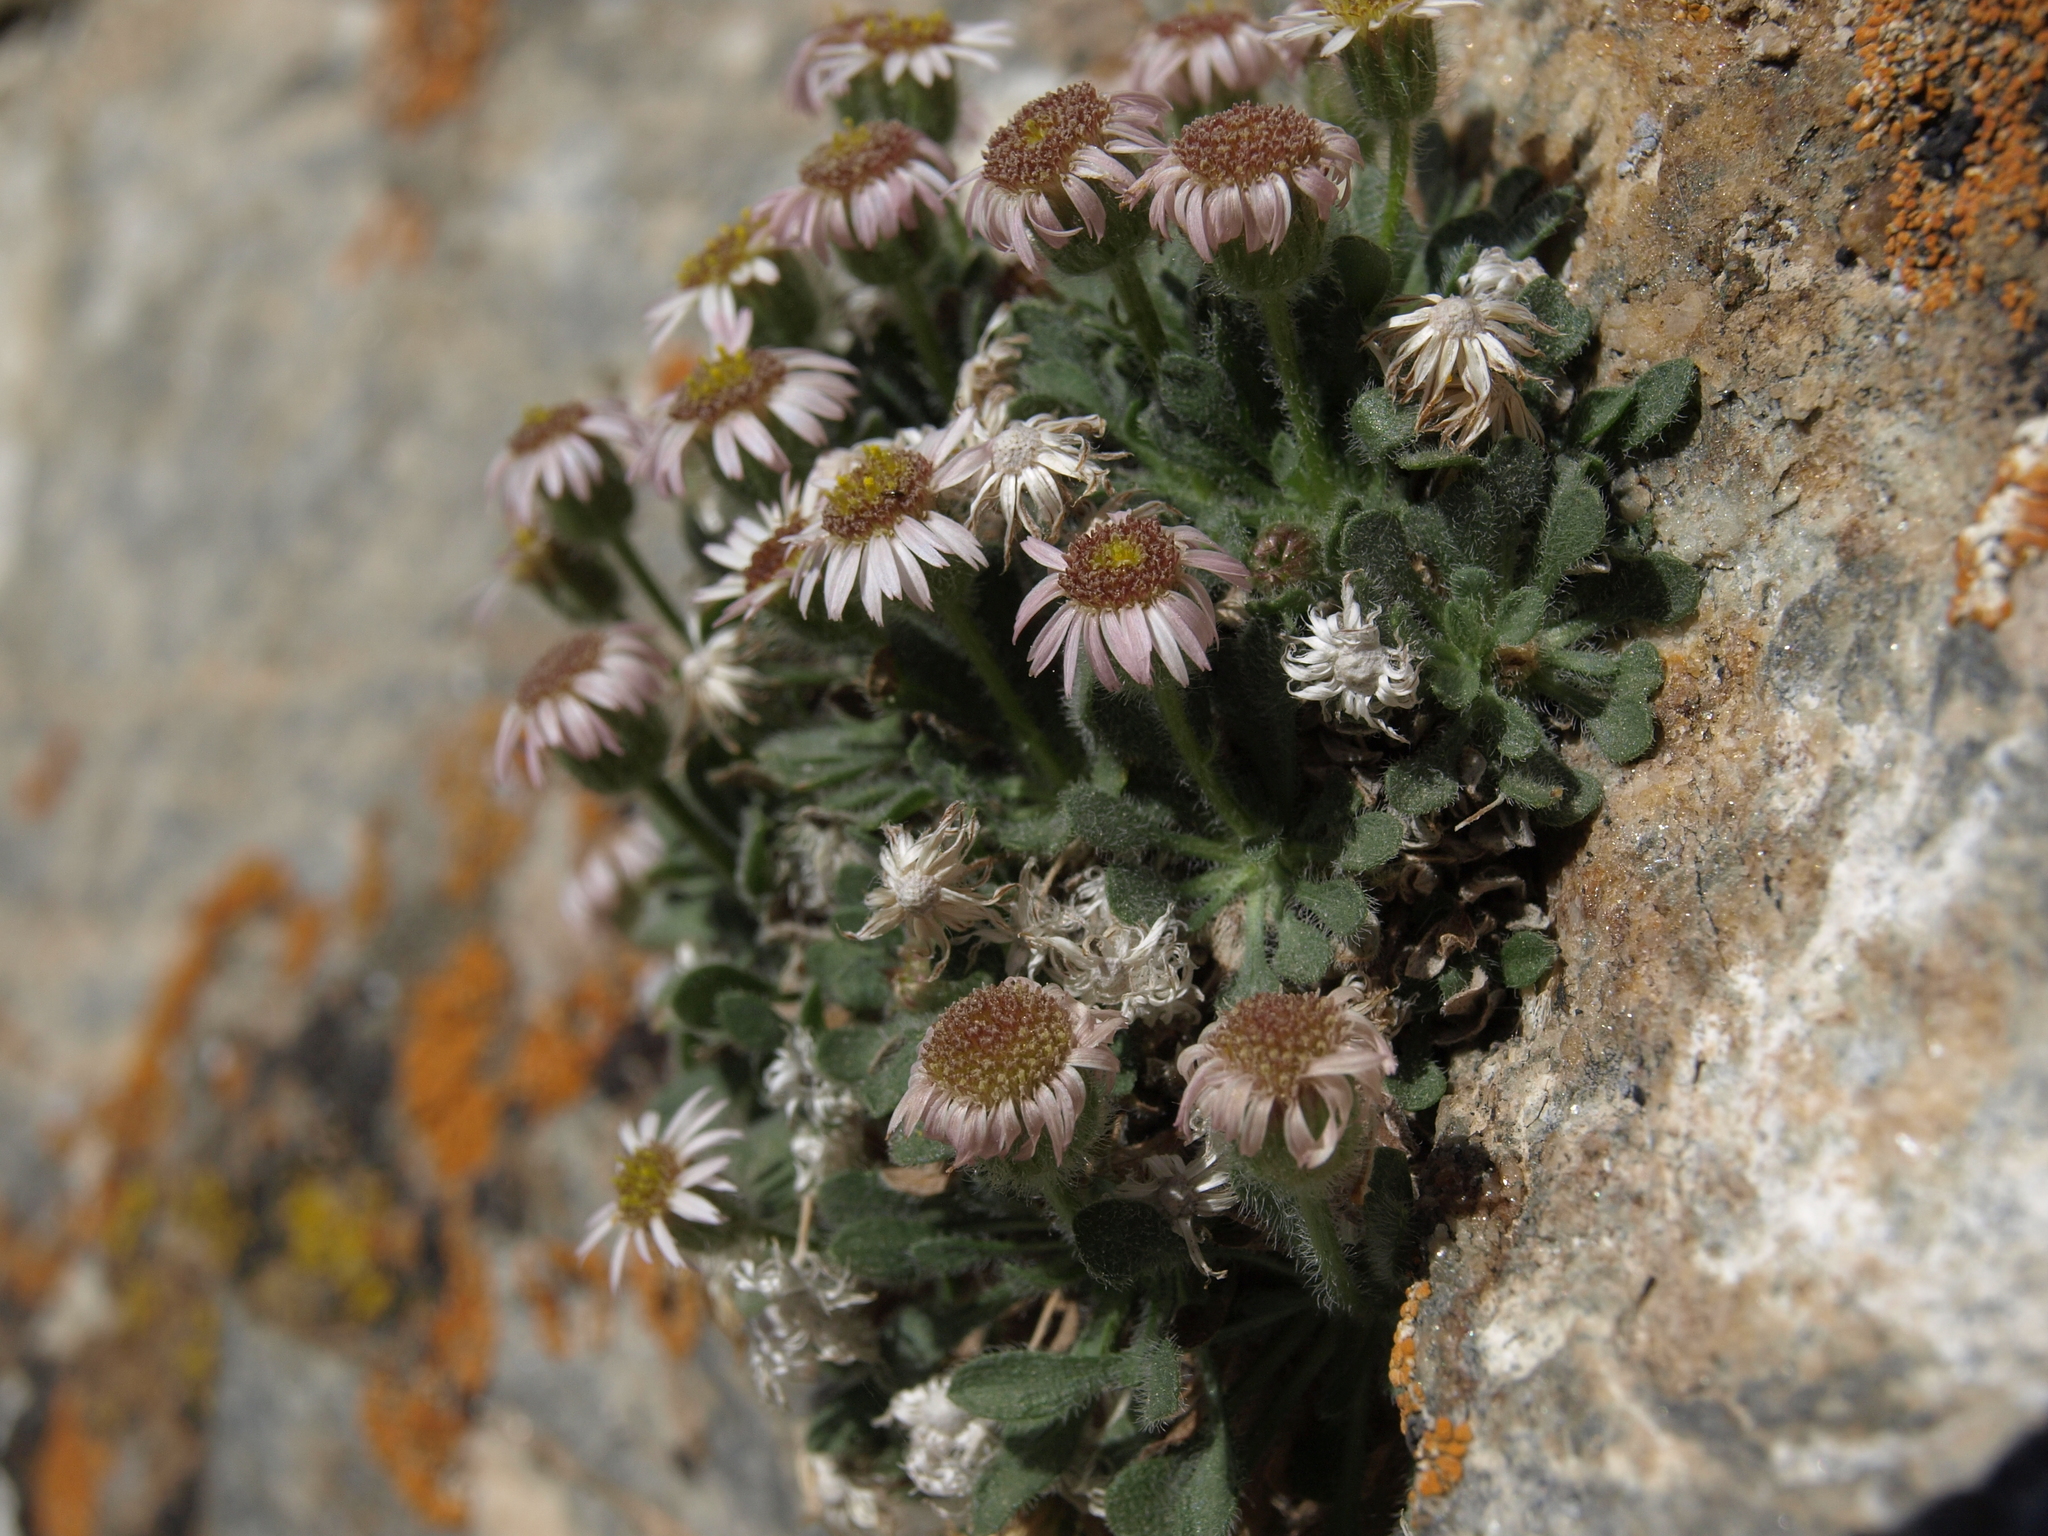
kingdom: Plantae
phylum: Tracheophyta
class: Magnoliopsida
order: Asterales
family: Asteraceae
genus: Erigeron
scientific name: Erigeron uncialis
